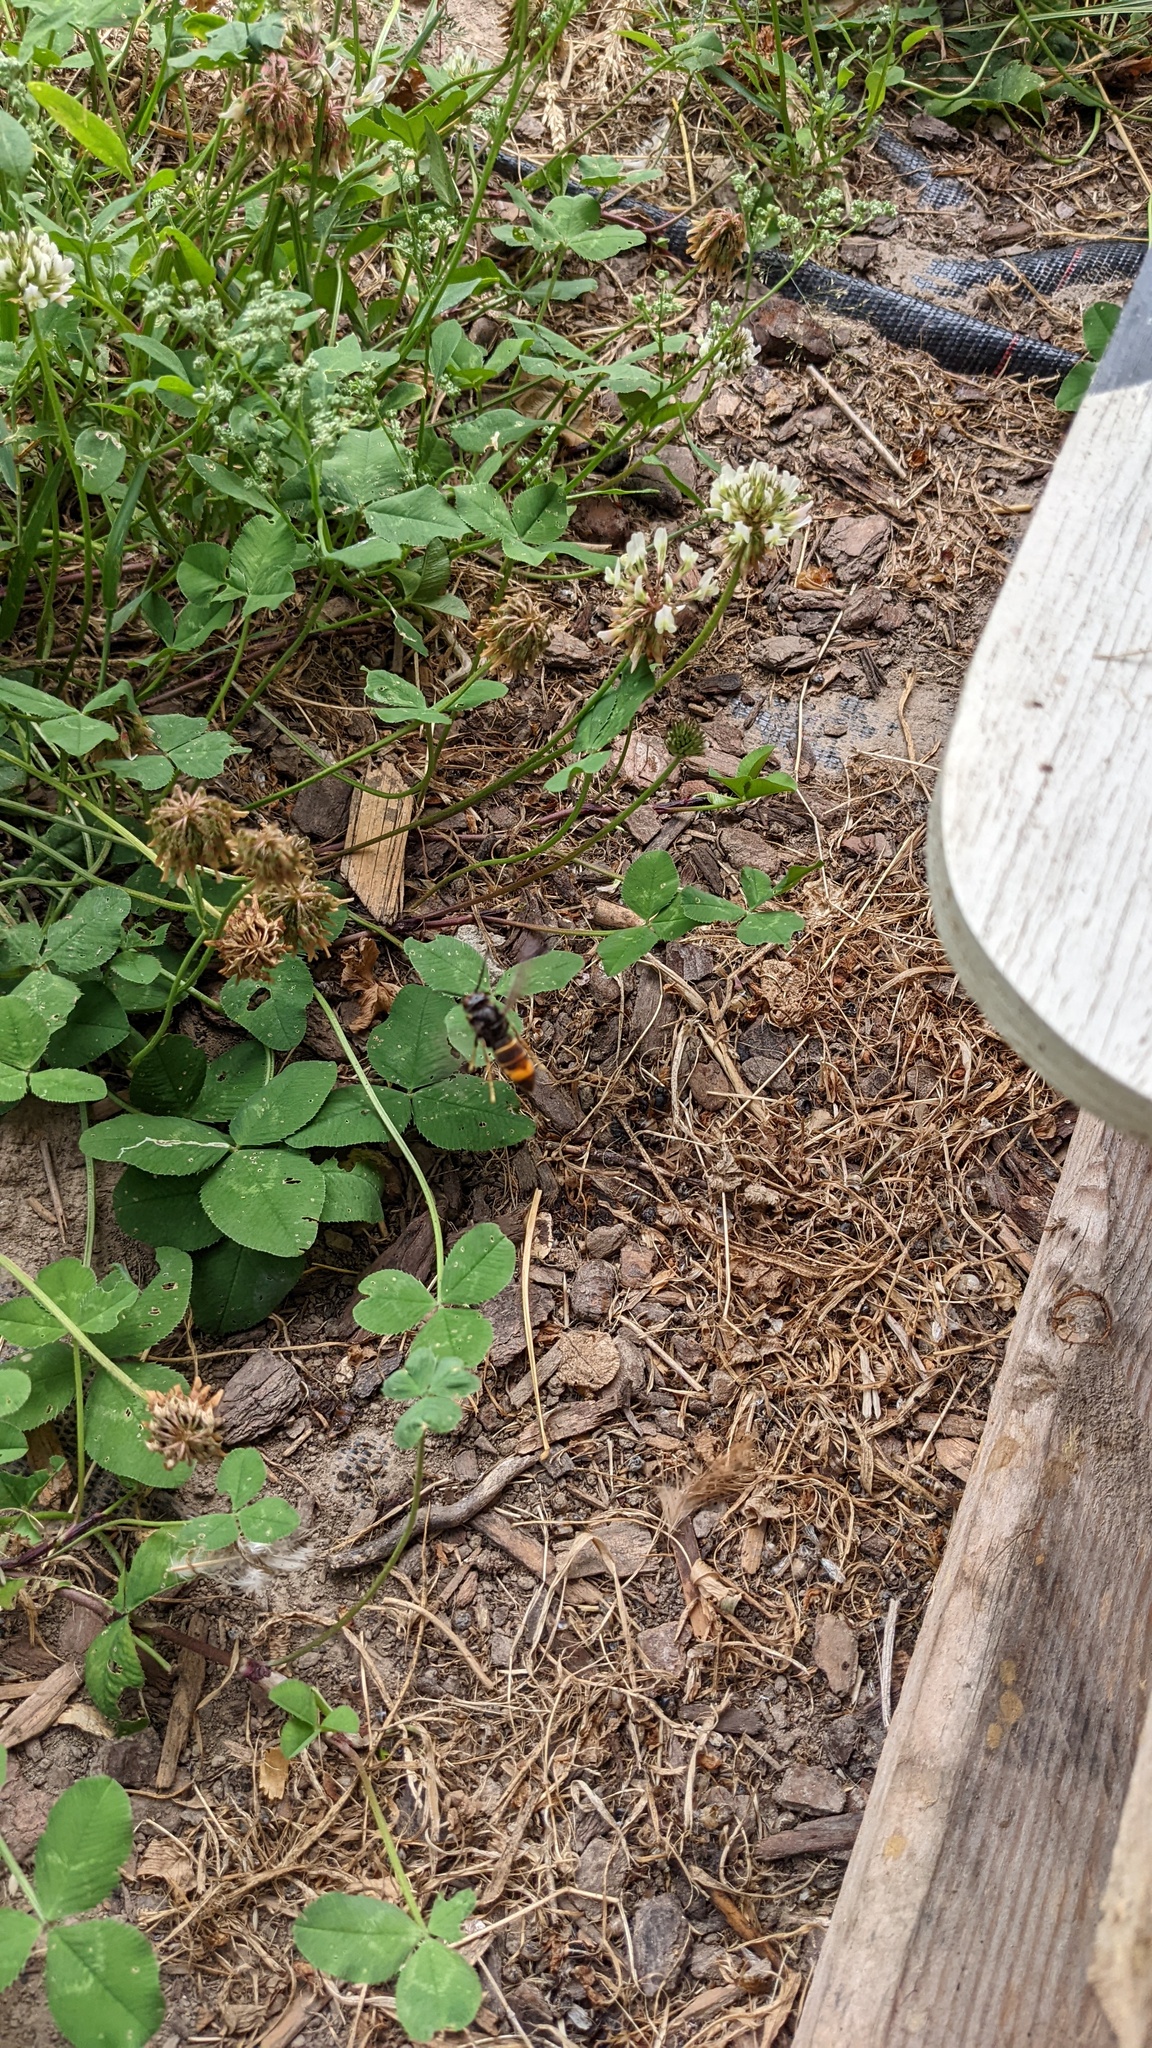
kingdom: Animalia
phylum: Arthropoda
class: Insecta
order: Hymenoptera
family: Vespidae
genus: Vespa
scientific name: Vespa velutina
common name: Asian hornet
